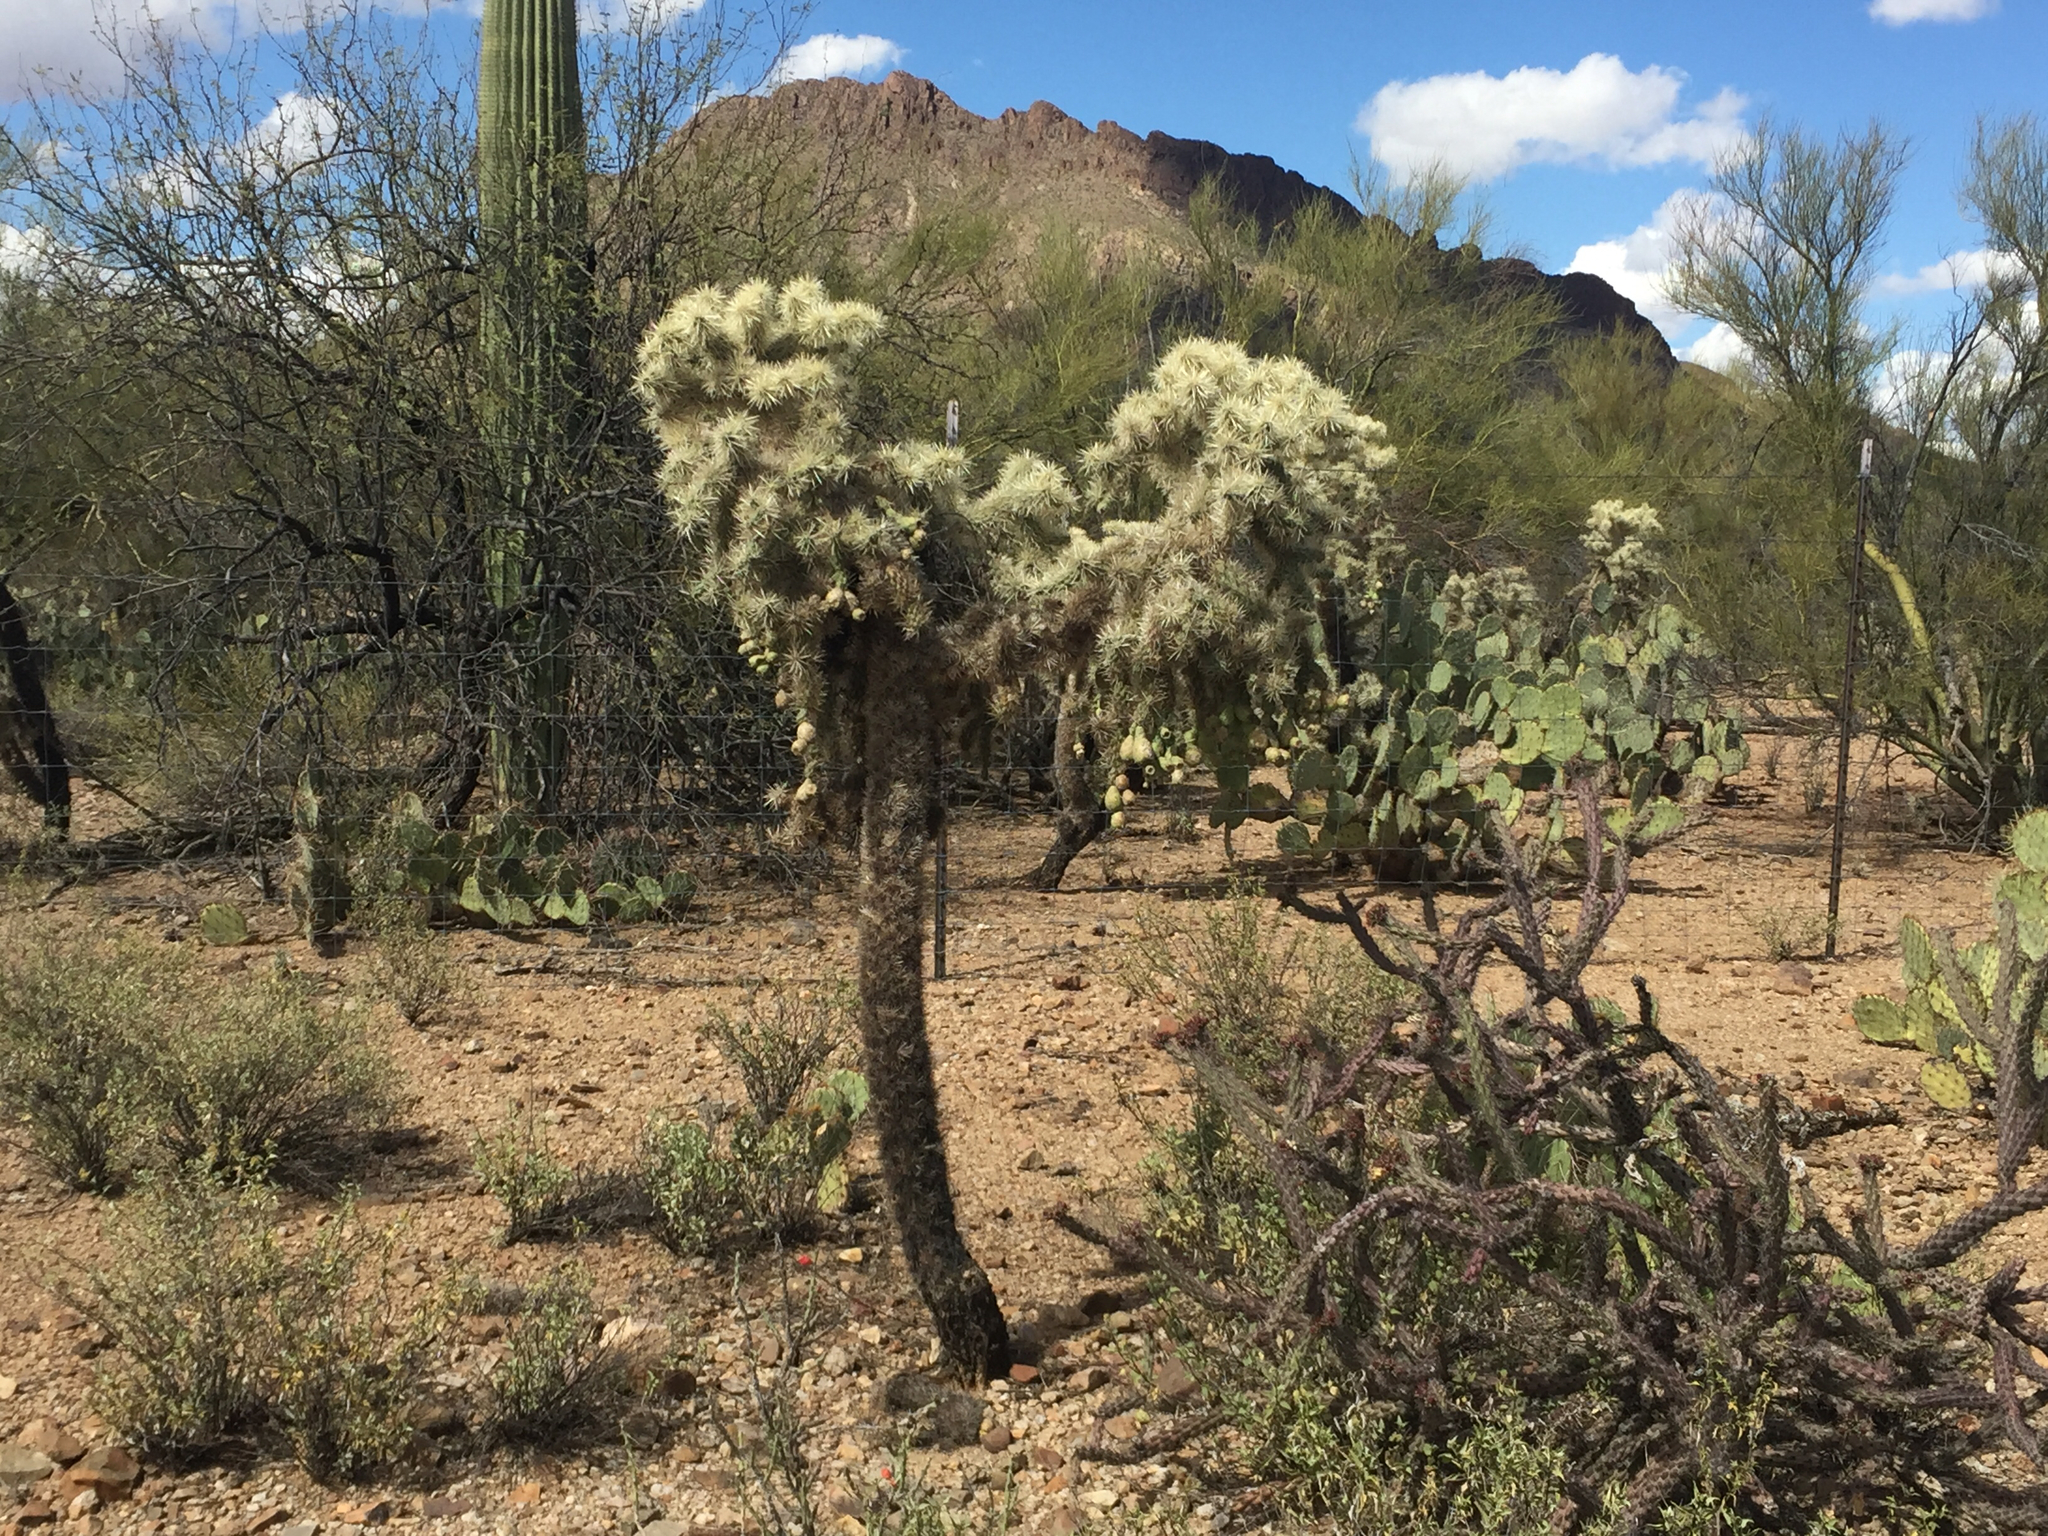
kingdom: Plantae
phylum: Tracheophyta
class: Magnoliopsida
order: Caryophyllales
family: Cactaceae
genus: Cylindropuntia
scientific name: Cylindropuntia fulgida
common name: Jumping cholla
